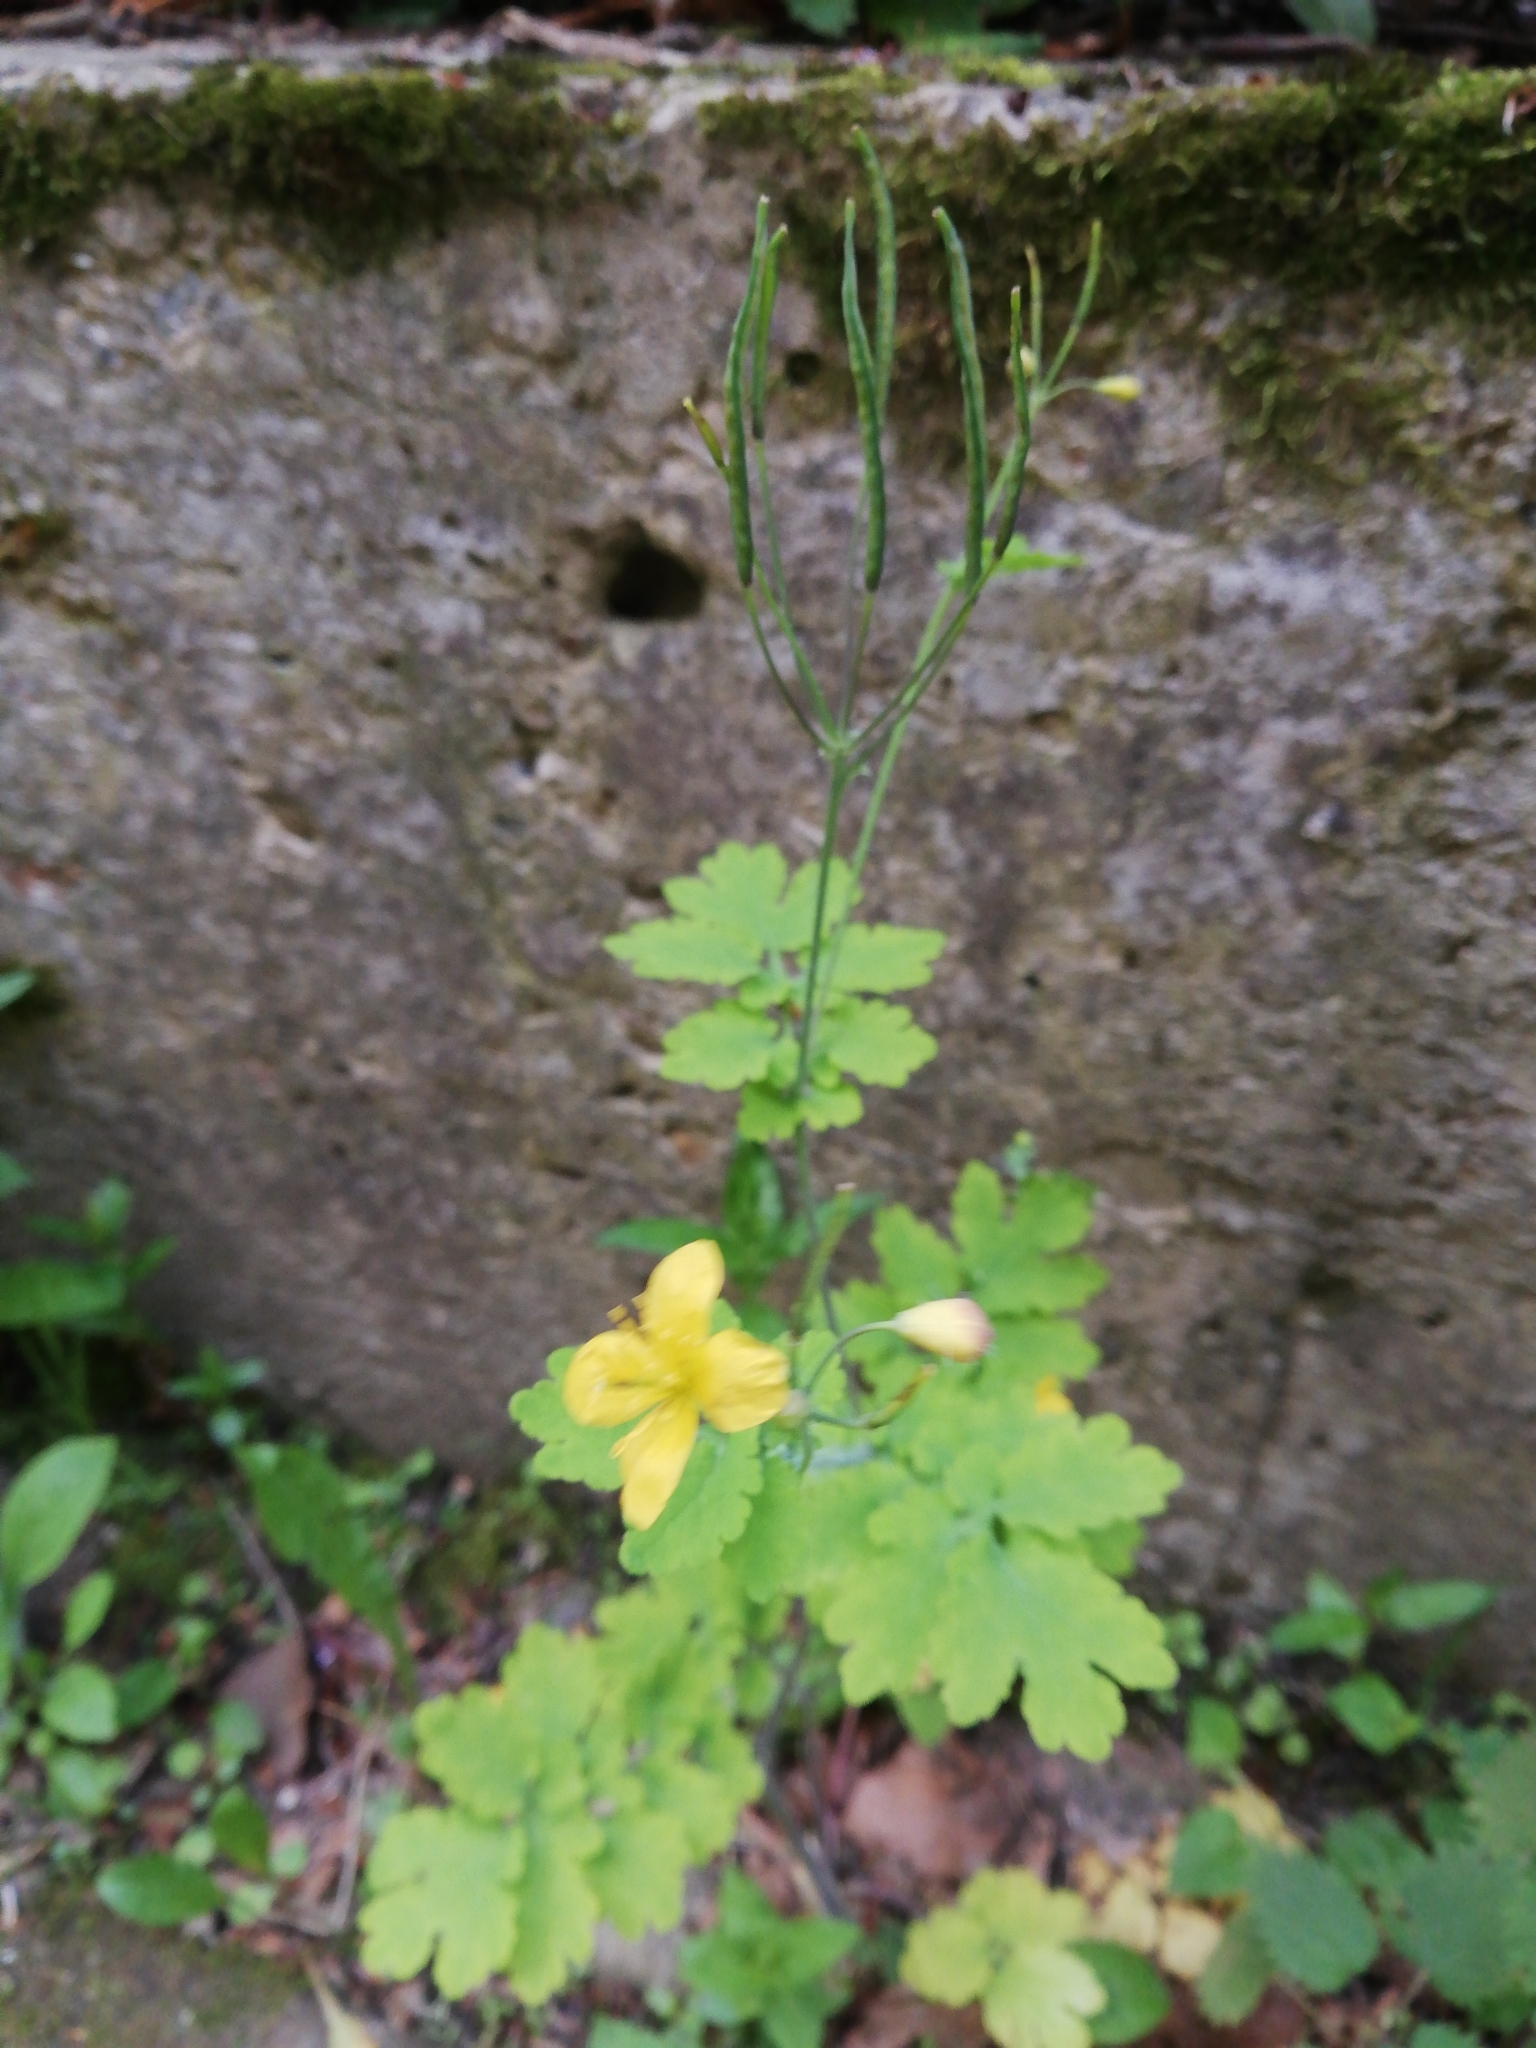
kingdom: Plantae
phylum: Tracheophyta
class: Magnoliopsida
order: Ranunculales
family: Papaveraceae
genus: Chelidonium
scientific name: Chelidonium majus
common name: Greater celandine
